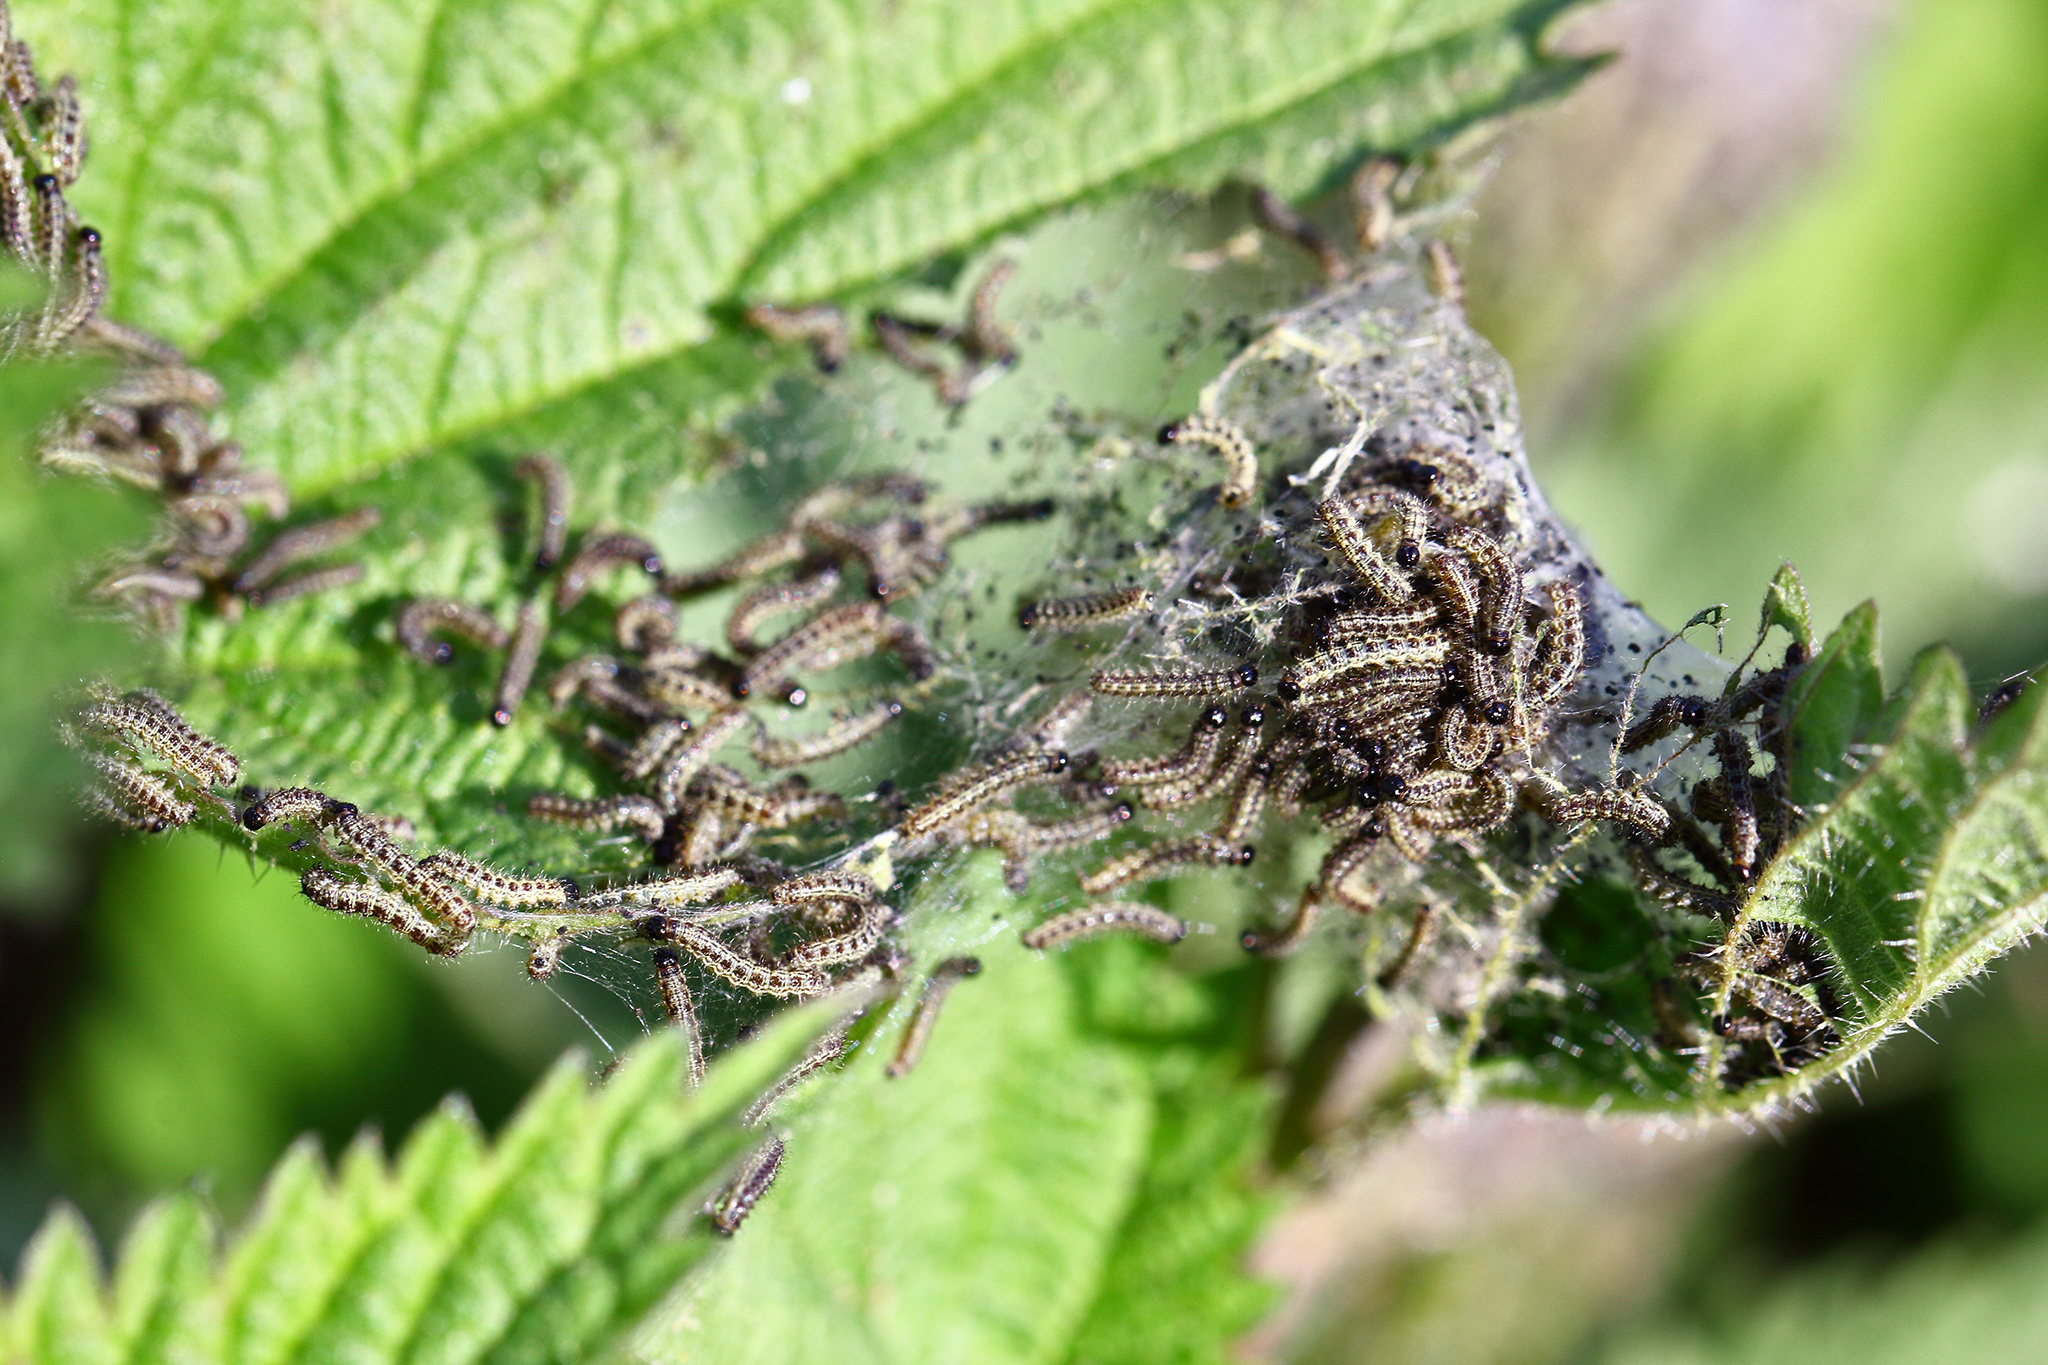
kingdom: Animalia
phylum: Arthropoda
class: Insecta
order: Lepidoptera
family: Nymphalidae
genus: Aglais
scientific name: Aglais urticae
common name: Small tortoiseshell
